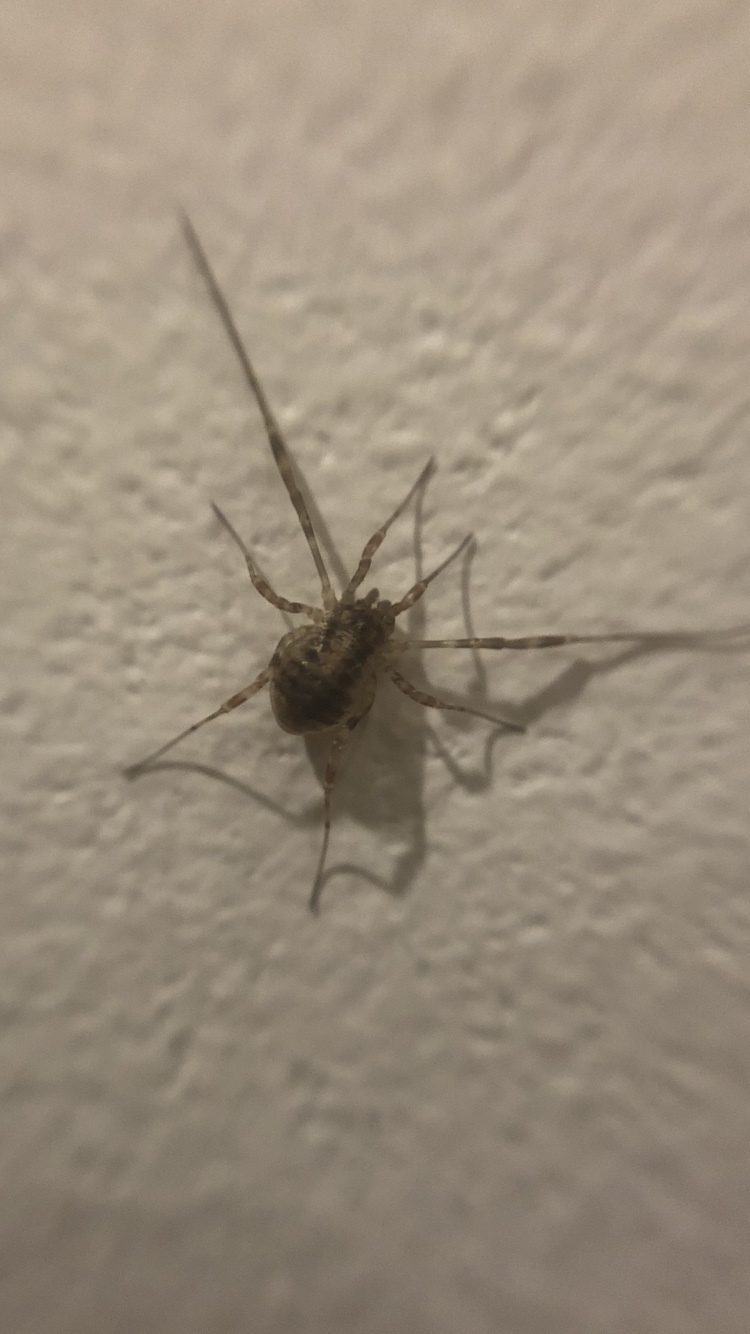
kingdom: Animalia
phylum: Arthropoda
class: Arachnida
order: Opiliones
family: Phalangiidae
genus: Paroligolophus
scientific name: Paroligolophus agrestis
